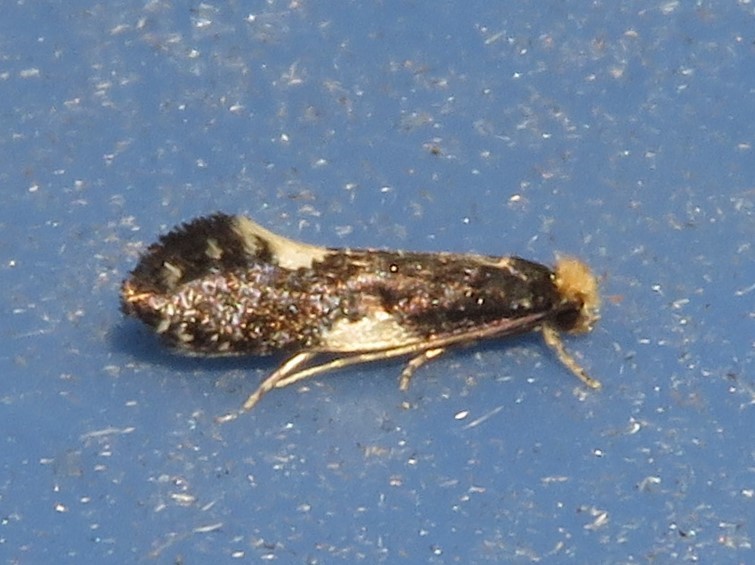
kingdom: Animalia
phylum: Arthropoda
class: Insecta
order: Lepidoptera
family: Tineidae
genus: Monopis
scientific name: Monopis spilotella
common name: Orange-headed monopis
